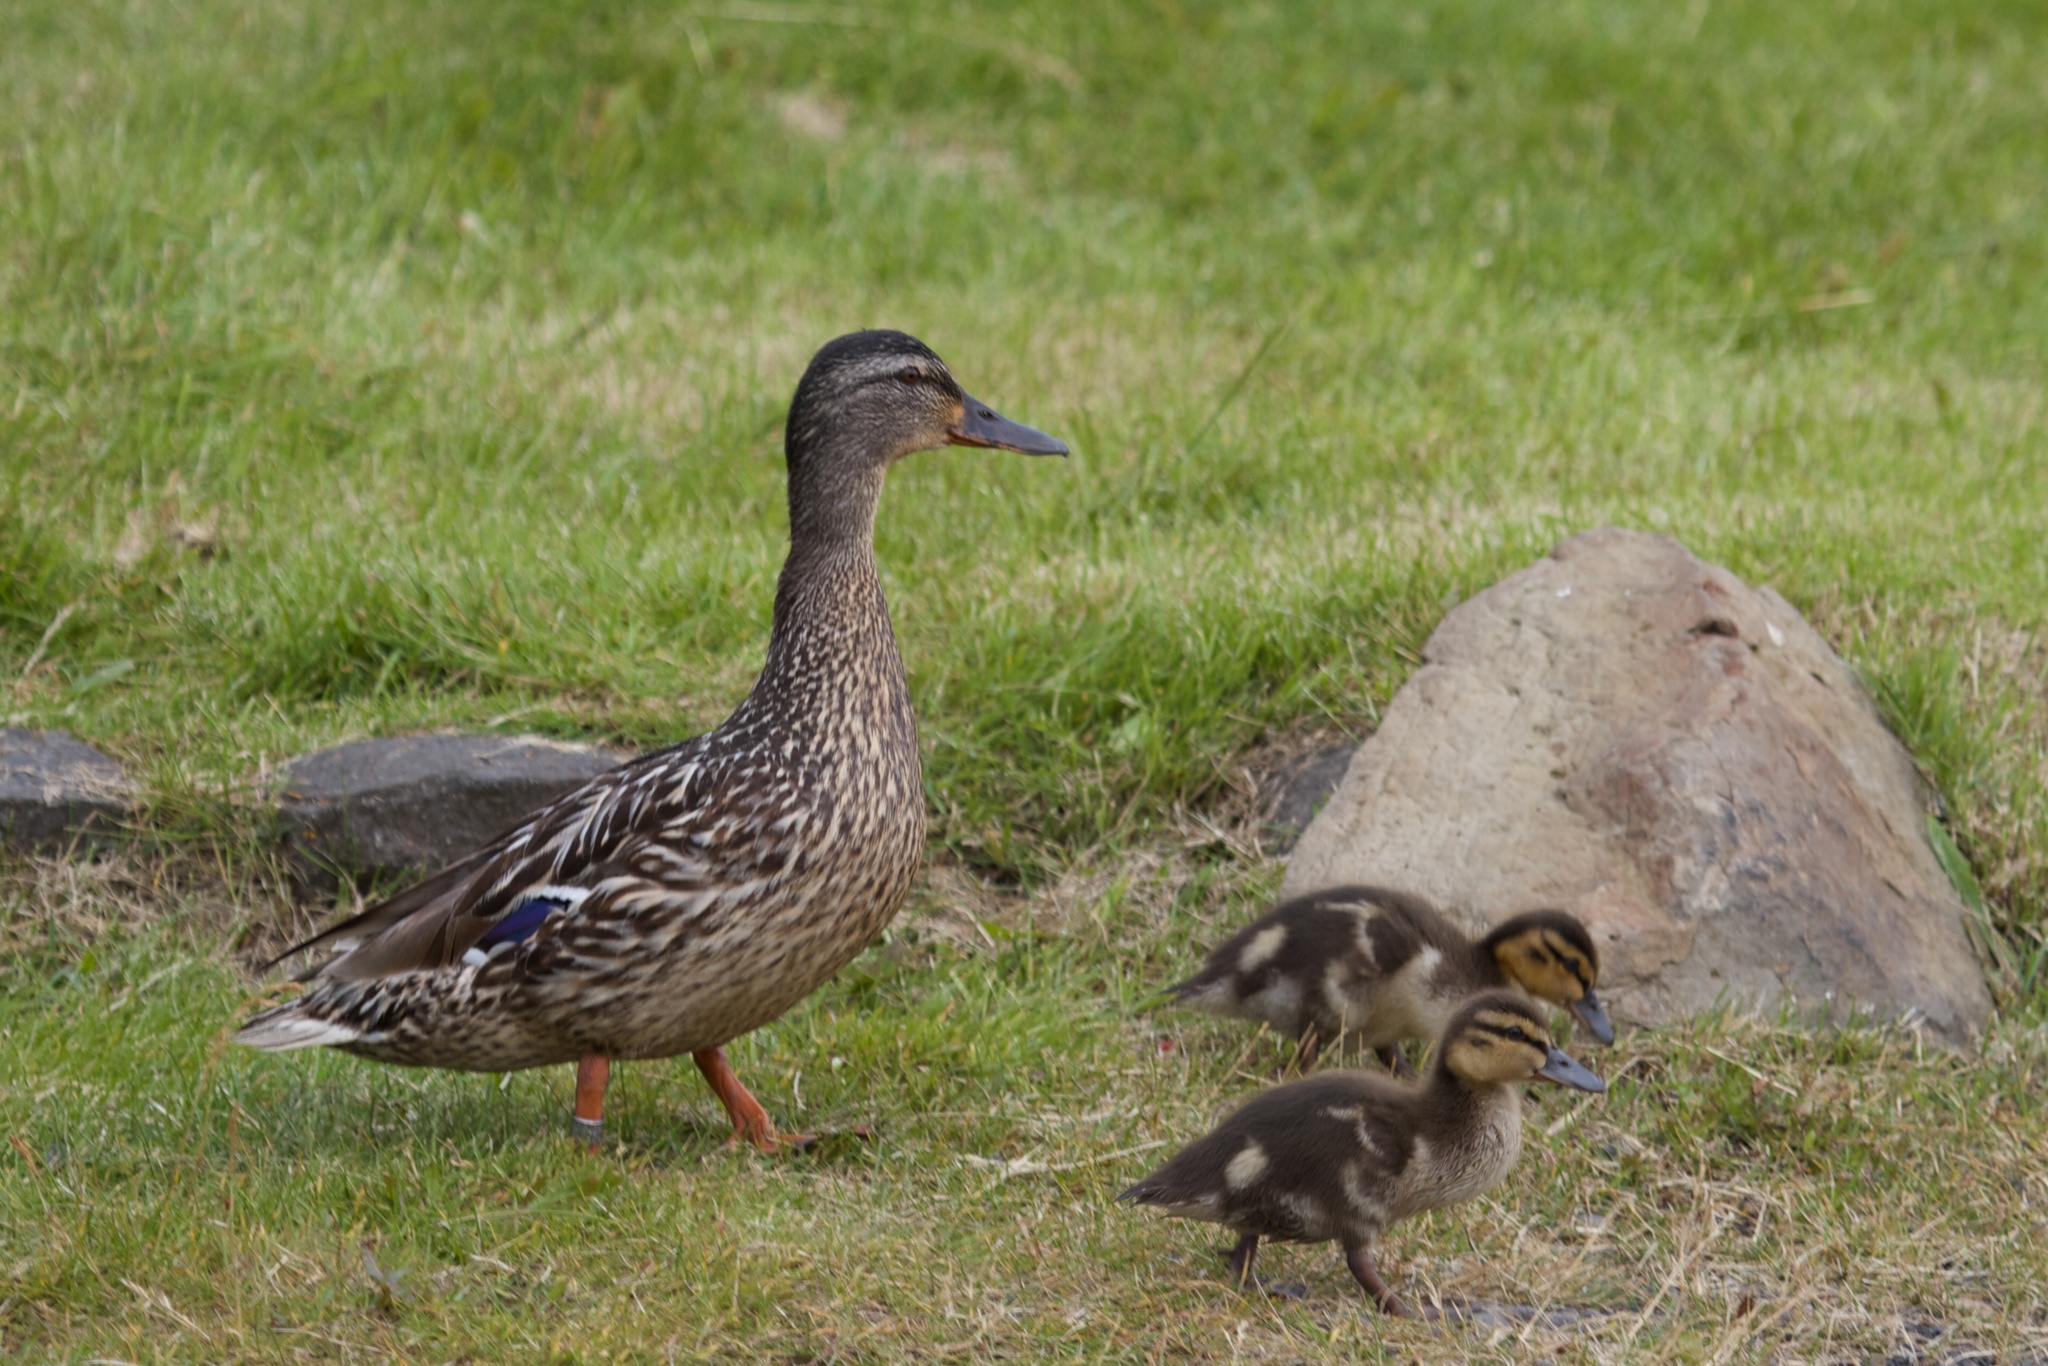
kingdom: Animalia
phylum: Chordata
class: Aves
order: Anseriformes
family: Anatidae
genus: Anas
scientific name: Anas platyrhynchos
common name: Mallard
